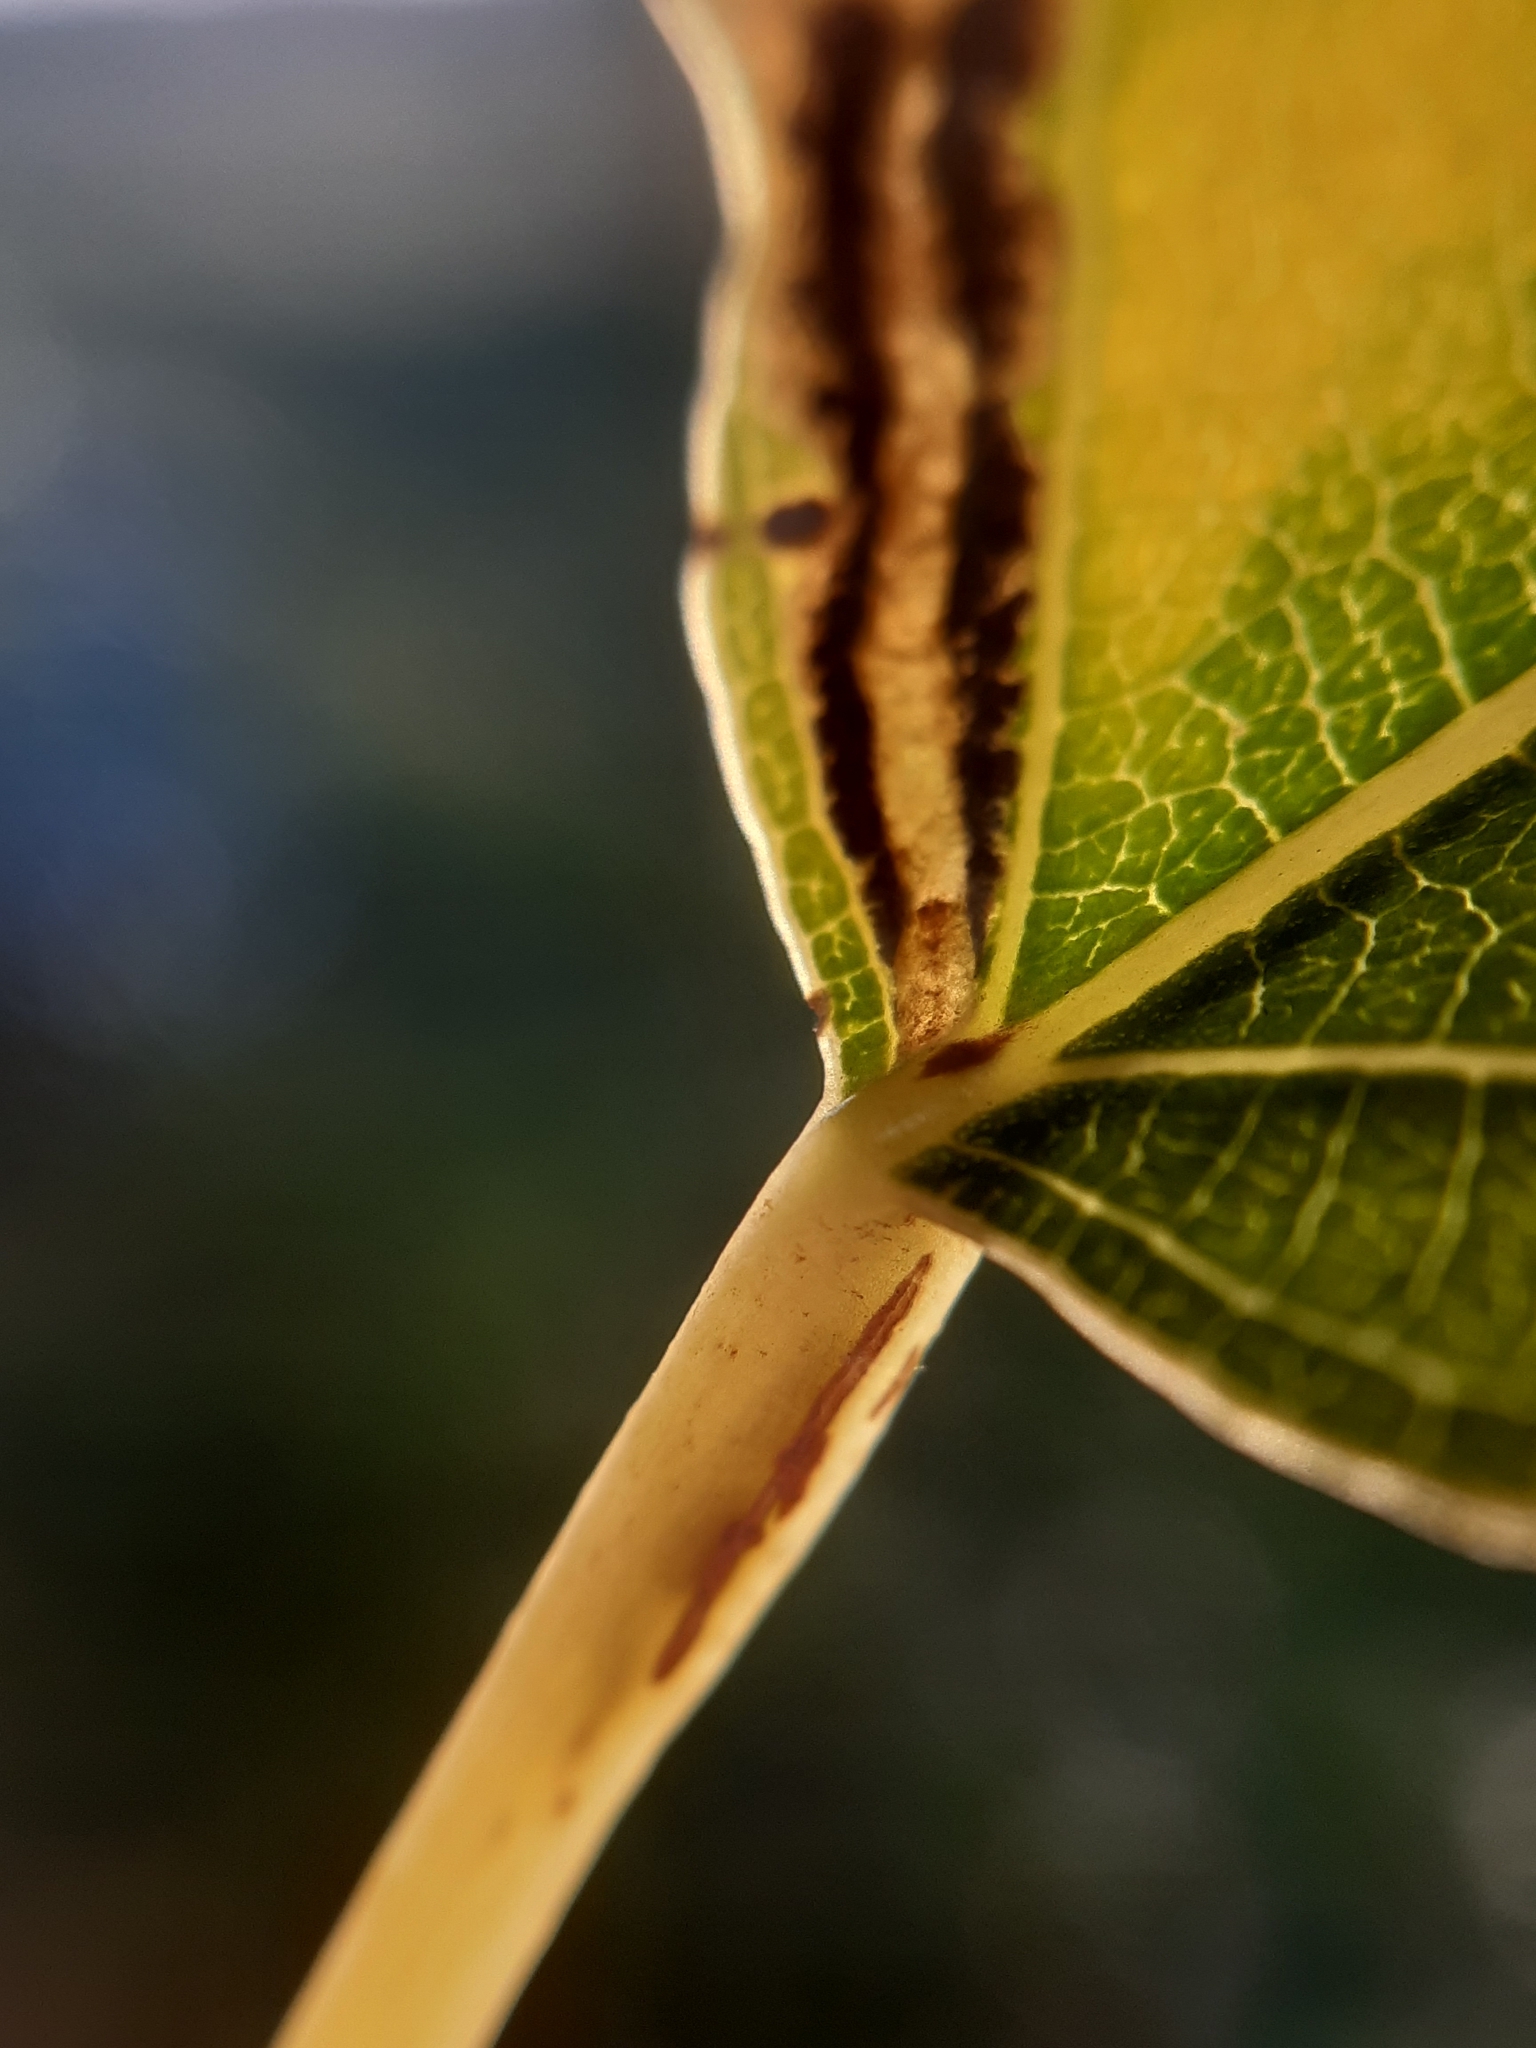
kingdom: Animalia
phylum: Arthropoda
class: Insecta
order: Lepidoptera
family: Nepticulidae
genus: Ectoedemia
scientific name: Ectoedemia hannoverella
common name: New poplar pigmy
